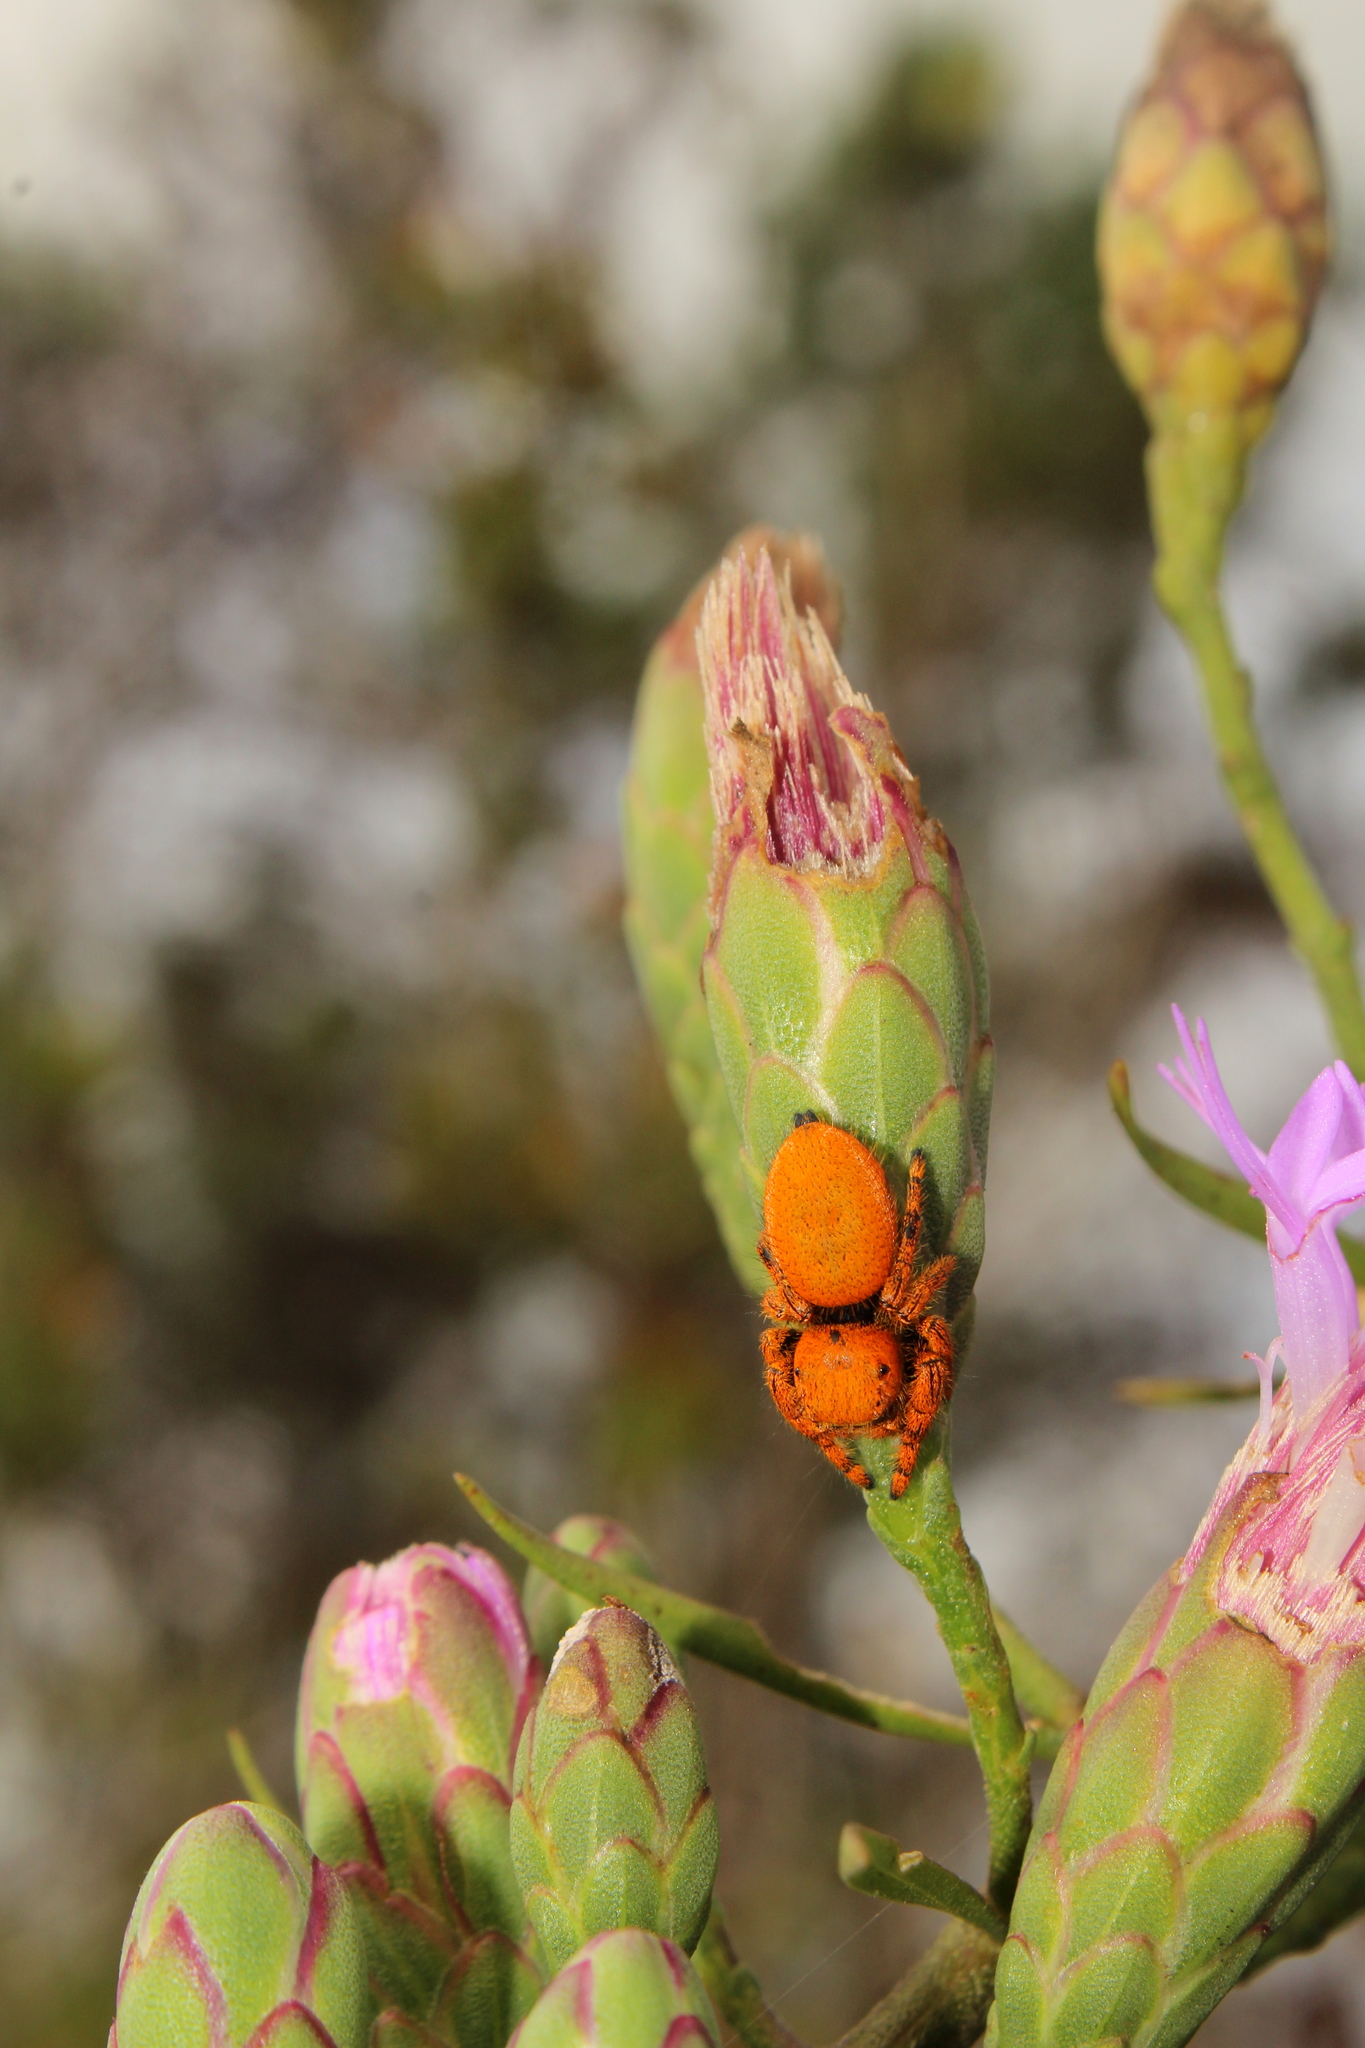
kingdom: Animalia
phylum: Arthropoda
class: Arachnida
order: Araneae
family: Salticidae
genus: Phidippus
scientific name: Phidippus apacheanus
